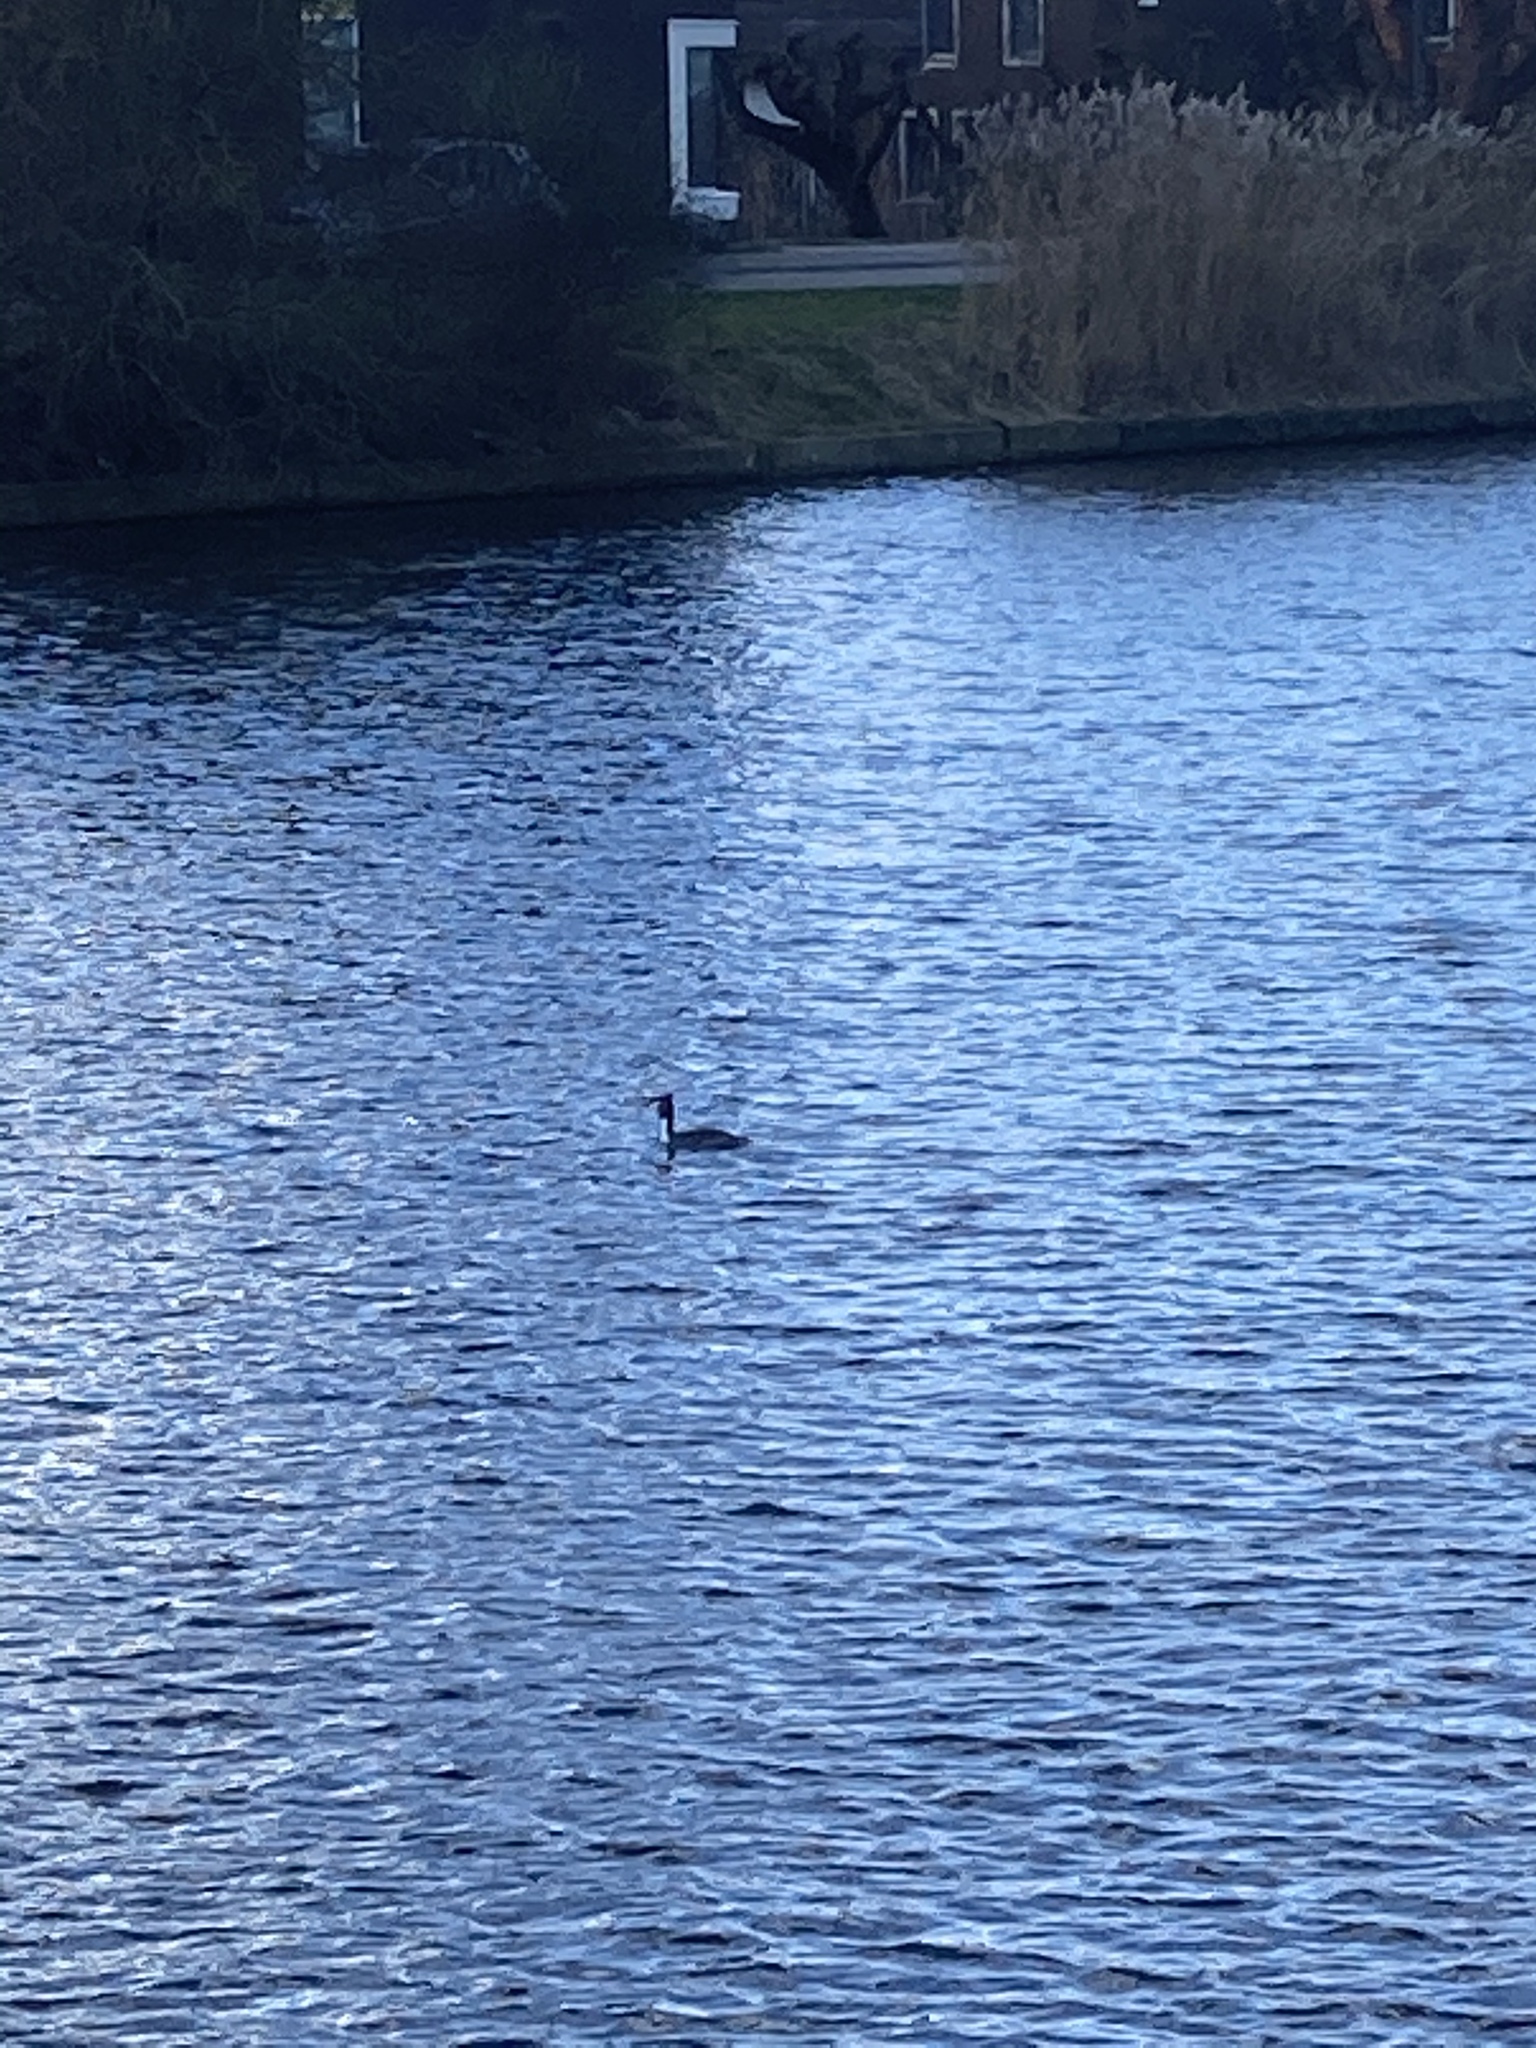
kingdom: Animalia
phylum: Chordata
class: Aves
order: Podicipediformes
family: Podicipedidae
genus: Podiceps
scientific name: Podiceps cristatus
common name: Great crested grebe
